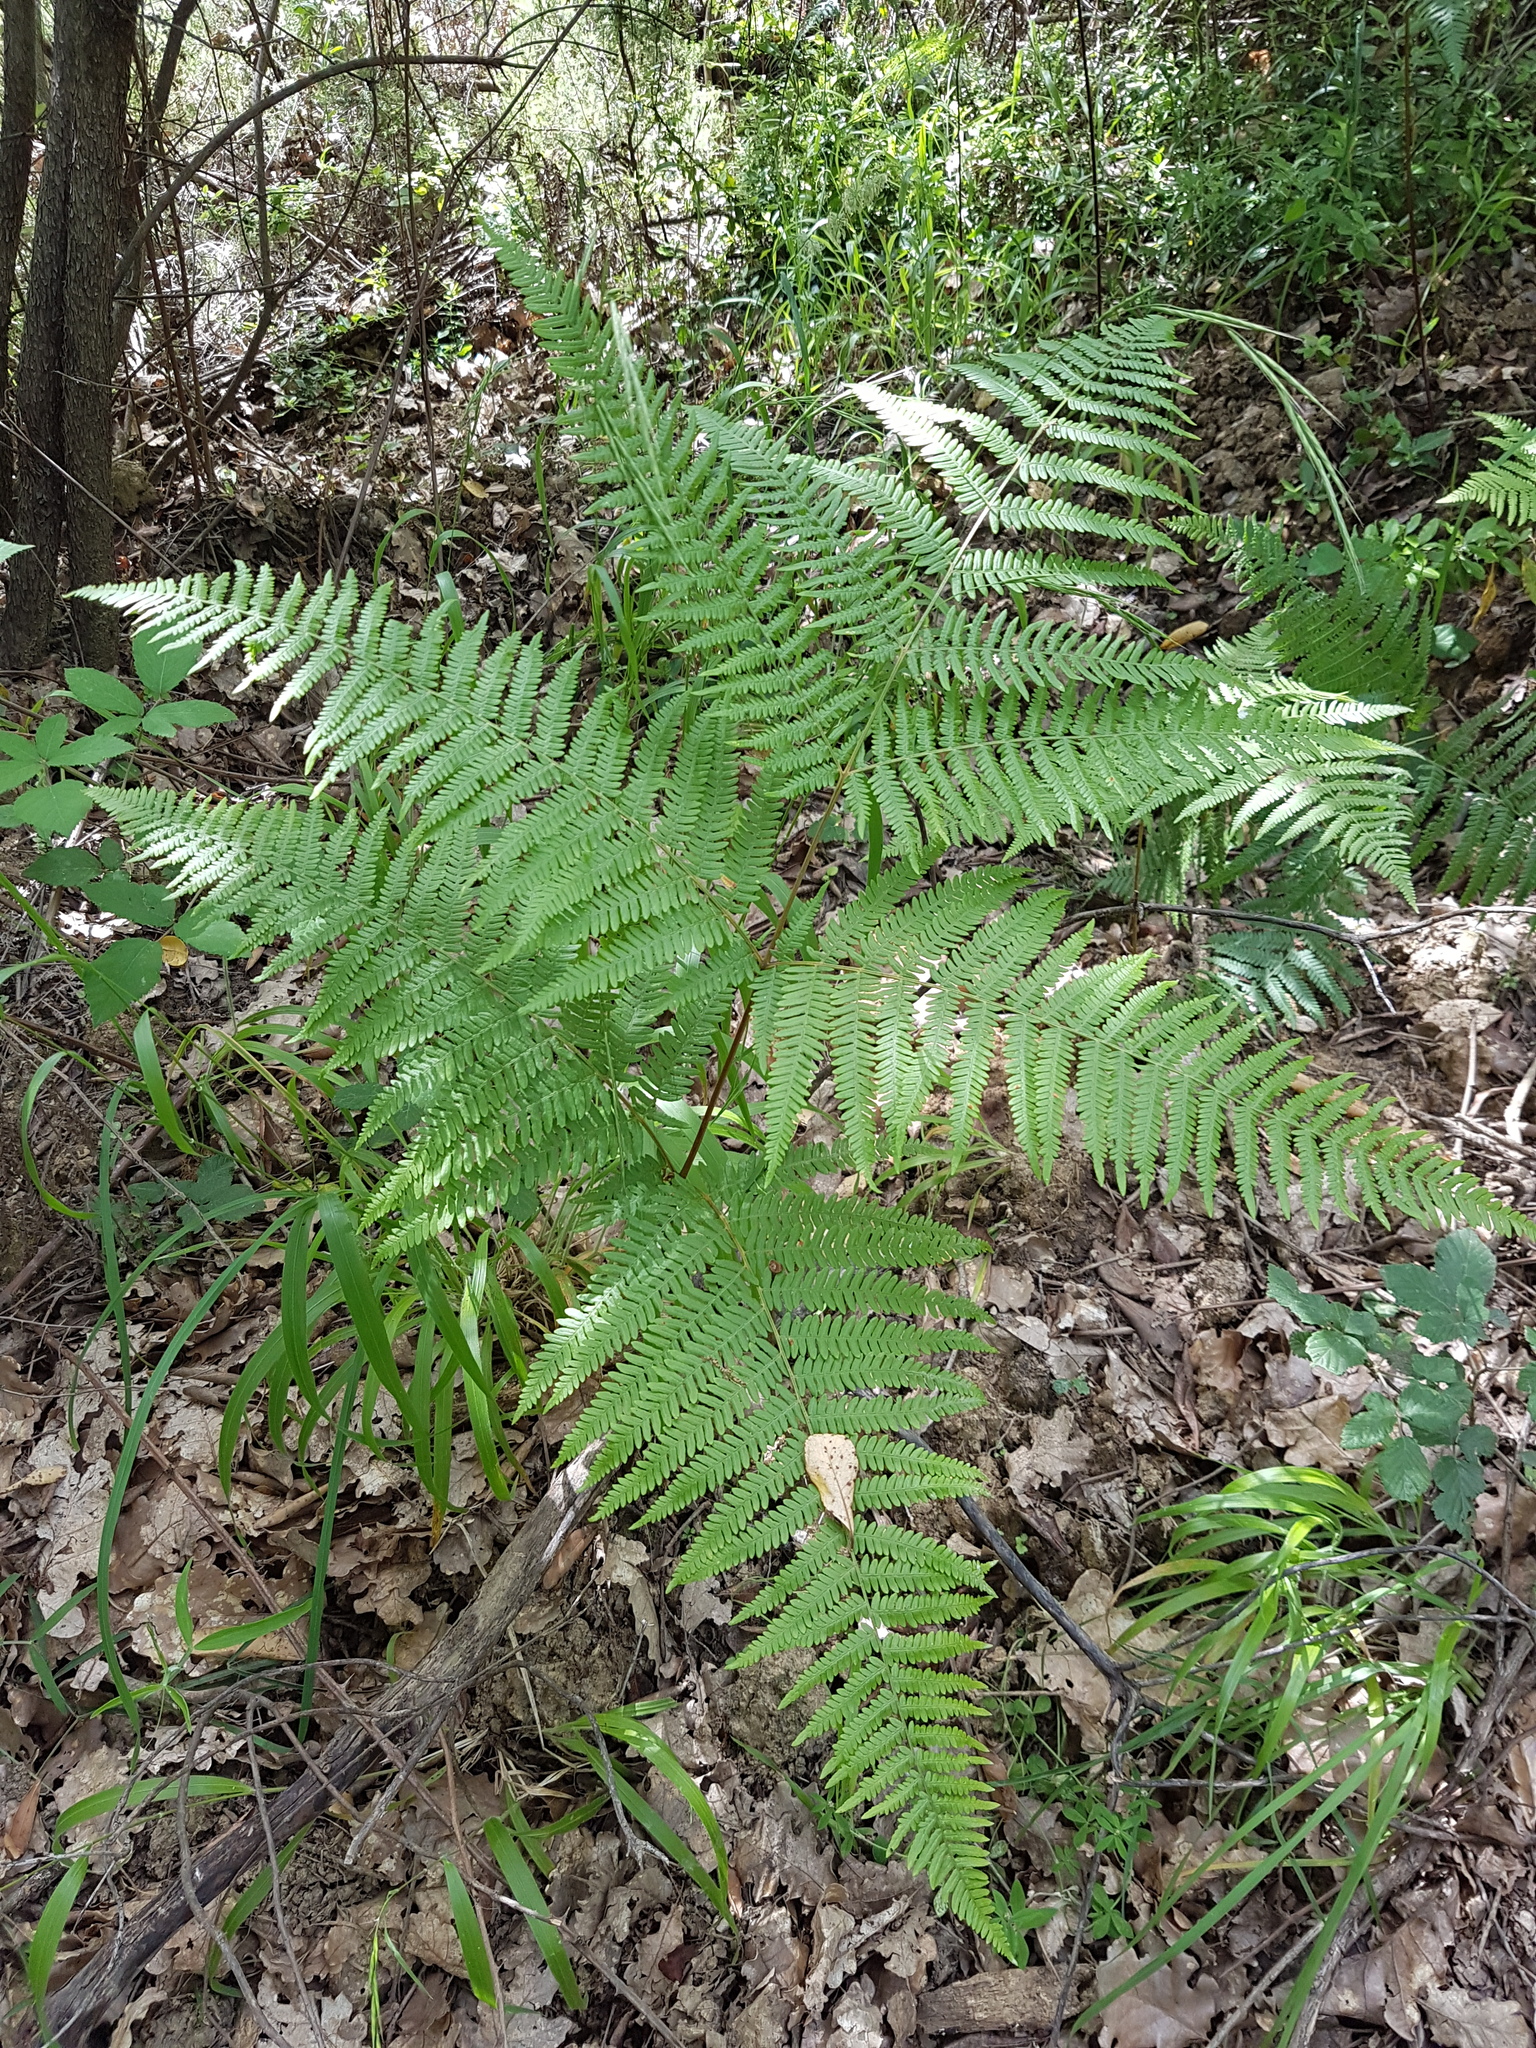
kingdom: Plantae
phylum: Tracheophyta
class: Polypodiopsida
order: Polypodiales
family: Dennstaedtiaceae
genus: Pteridium
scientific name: Pteridium aquilinum
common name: Bracken
